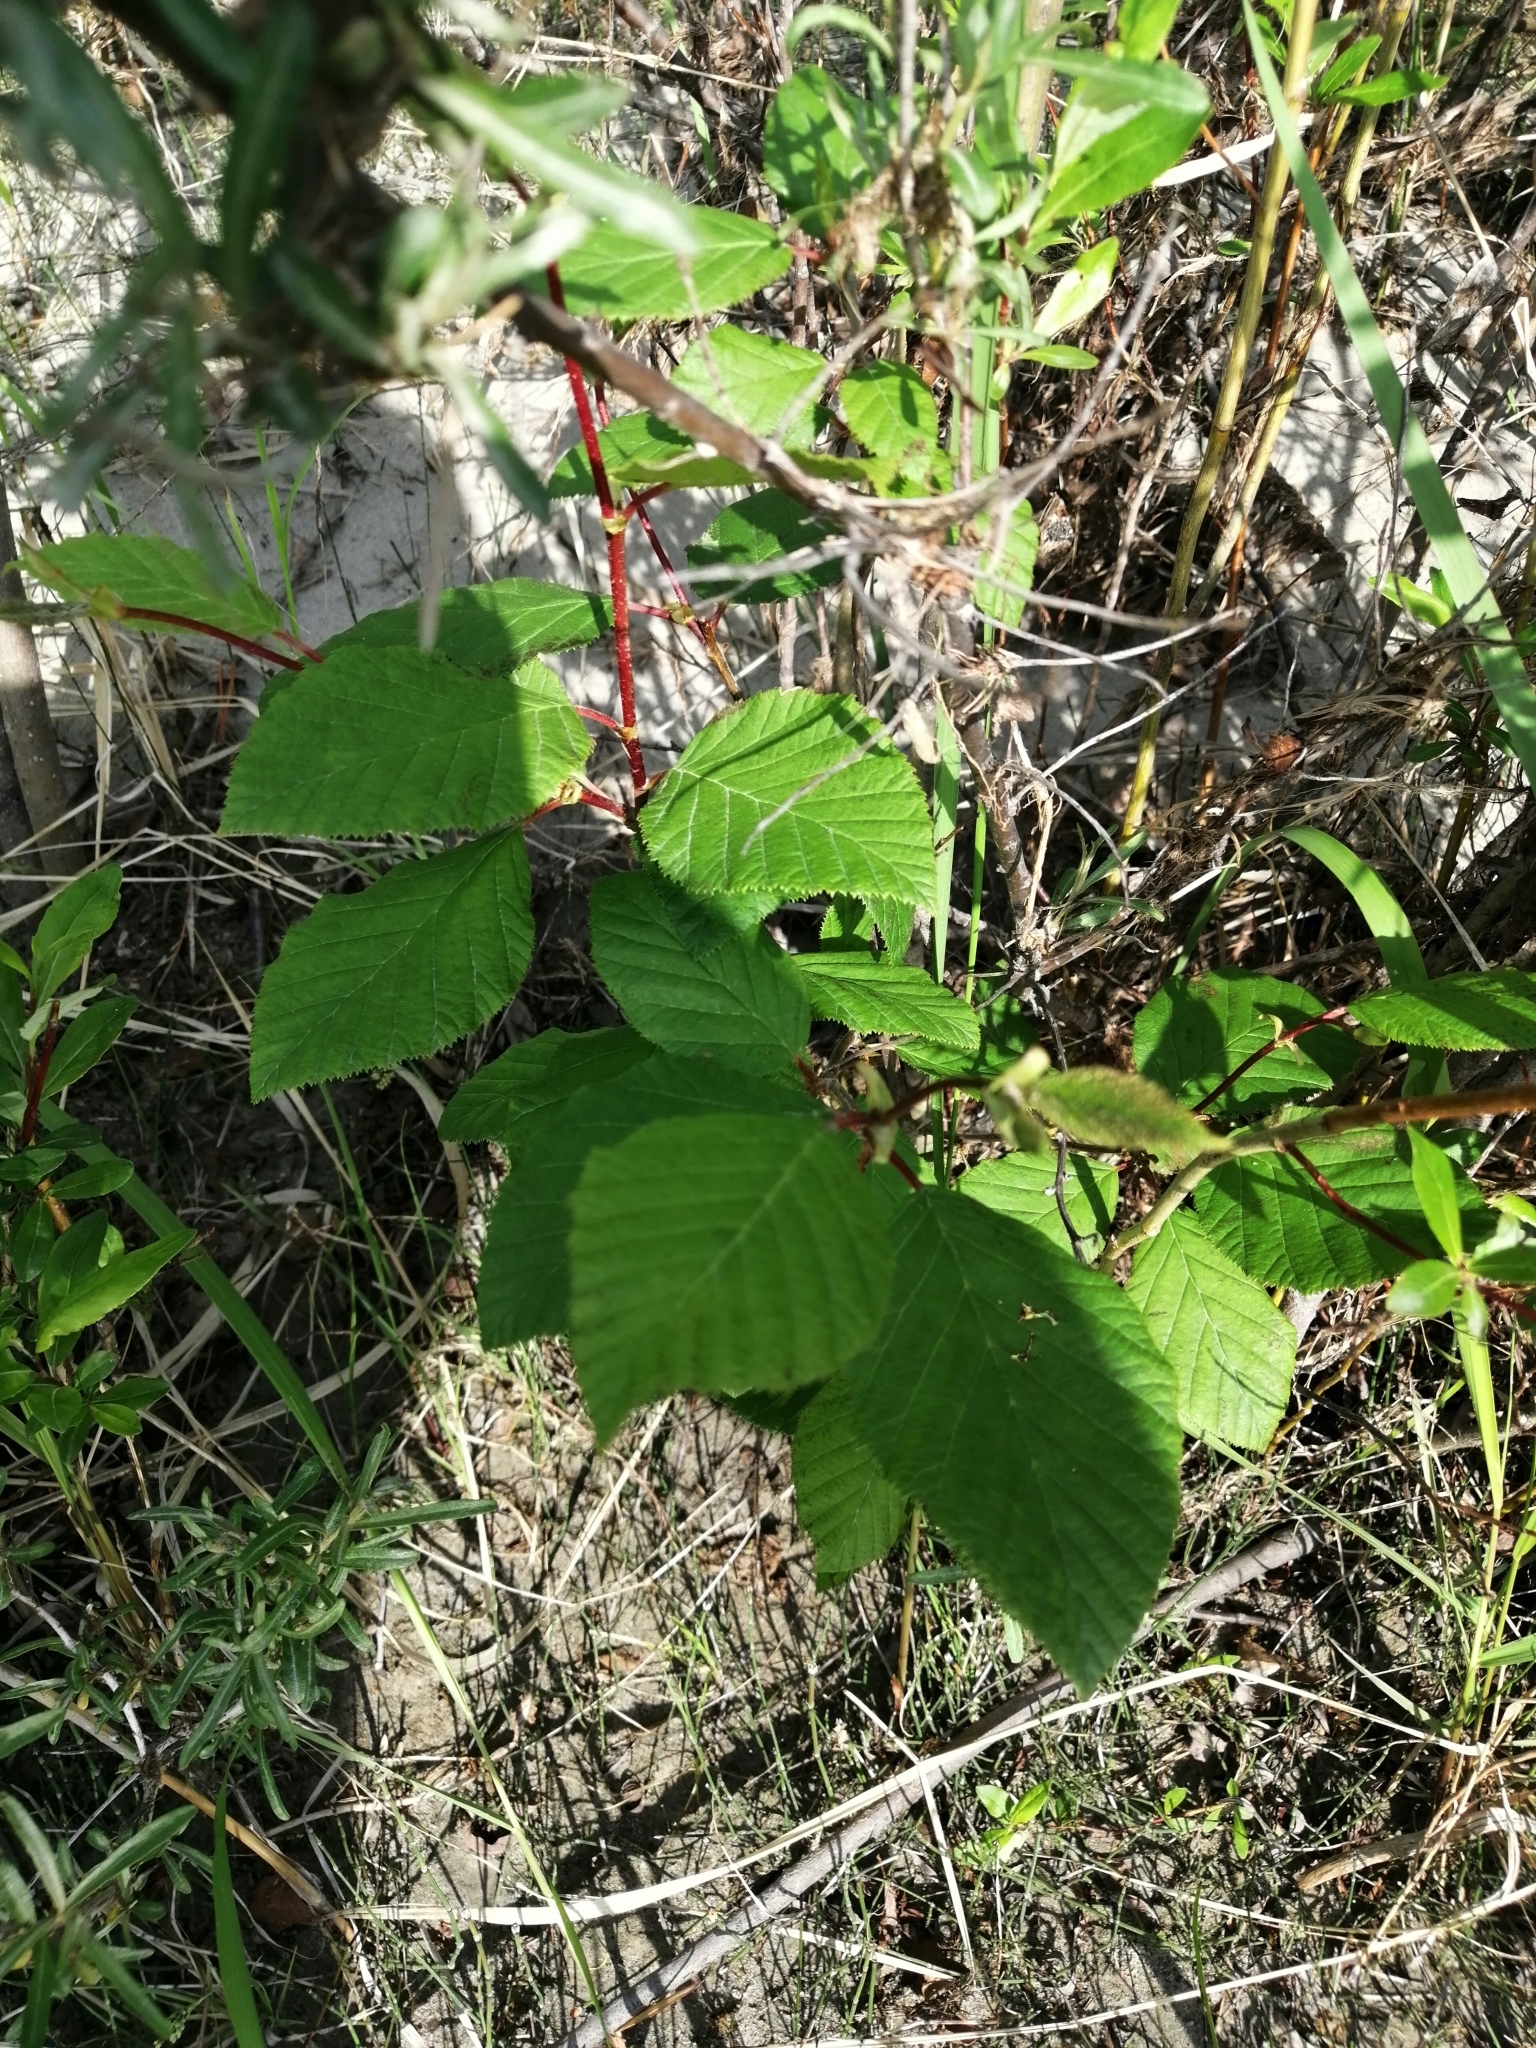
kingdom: Plantae
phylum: Tracheophyta
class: Magnoliopsida
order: Fagales
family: Betulaceae
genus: Alnus
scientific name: Alnus alnobetula
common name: Green alder
